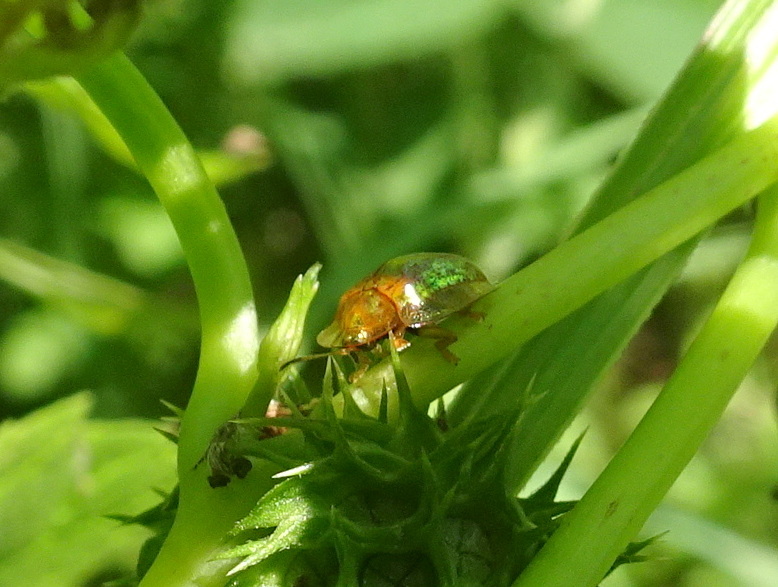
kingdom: Animalia
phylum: Arthropoda
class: Insecta
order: Coleoptera
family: Chrysomelidae
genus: Charidotella
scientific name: Charidotella sexpunctata
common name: Golden tortoise beetle
